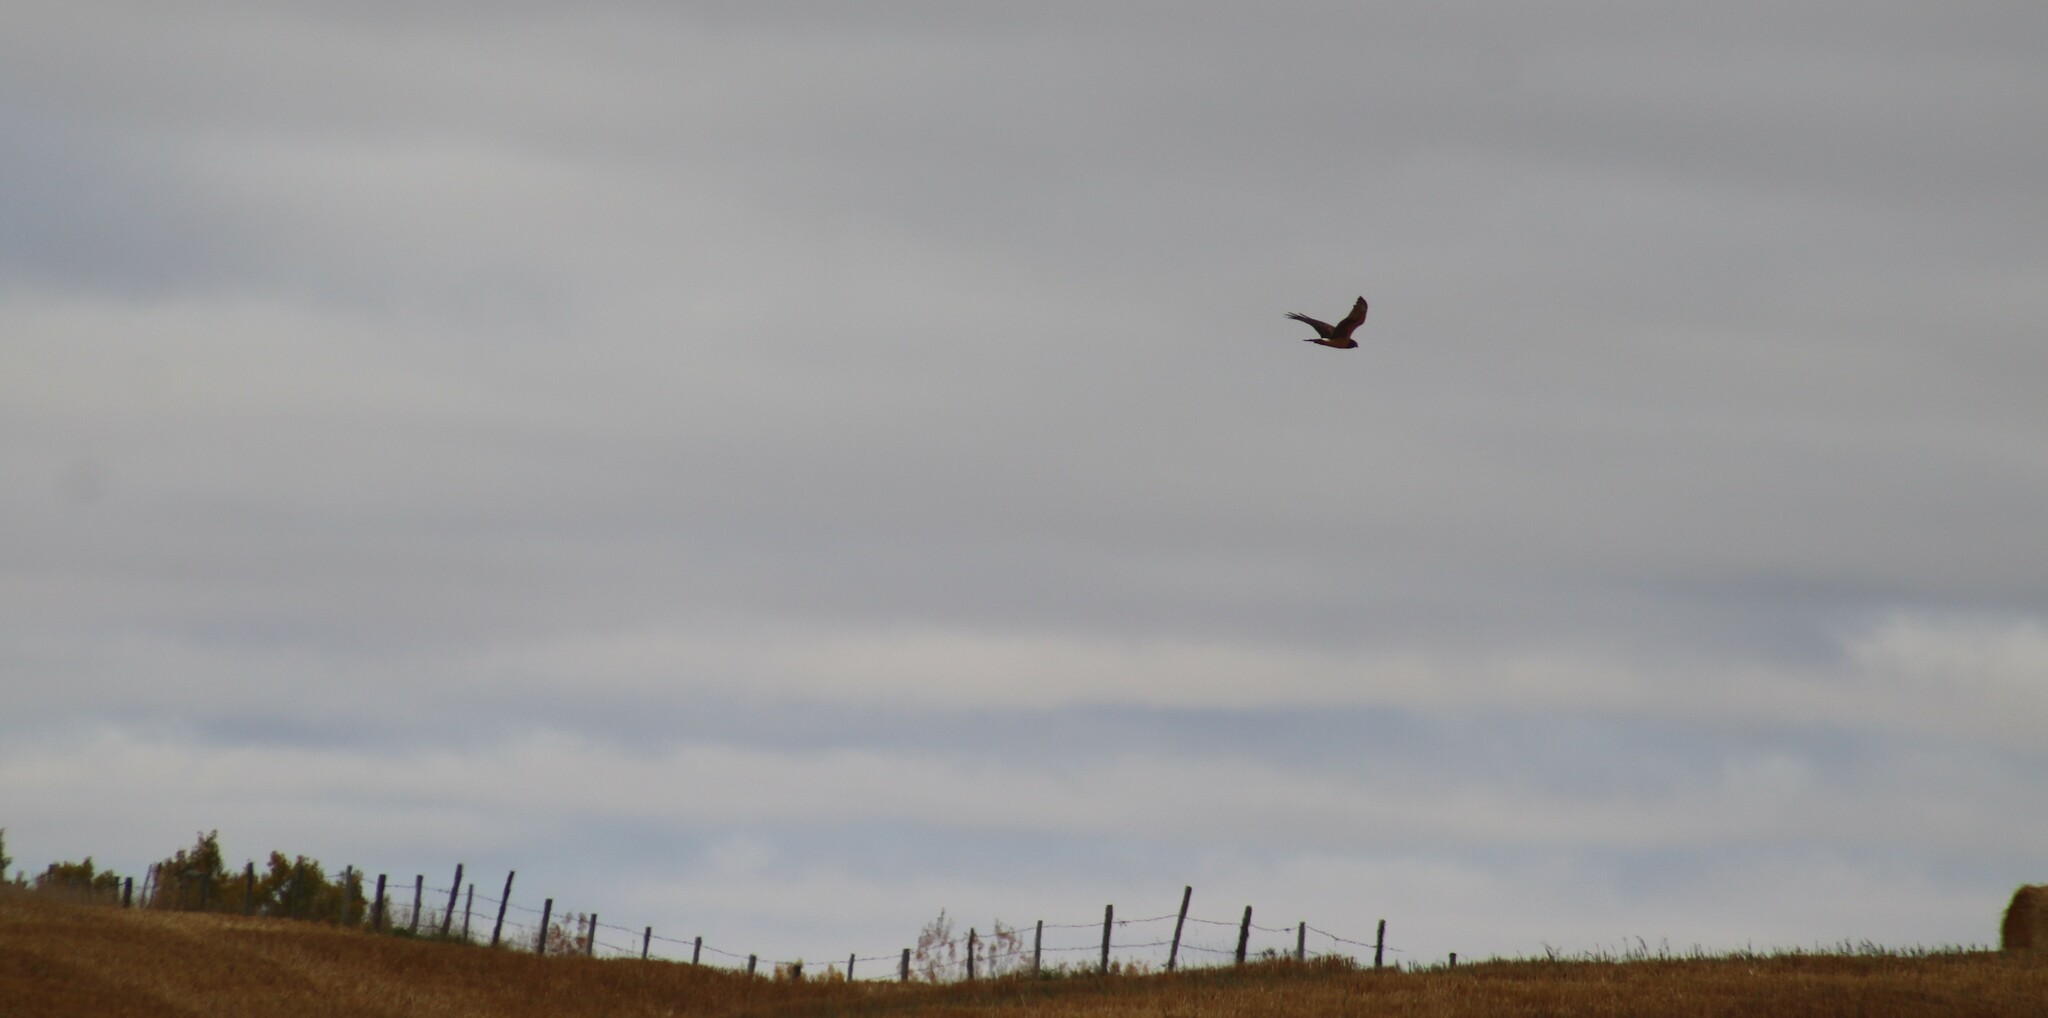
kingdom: Animalia
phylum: Chordata
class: Aves
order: Accipitriformes
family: Accipitridae
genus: Circus
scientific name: Circus cyaneus
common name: Hen harrier
